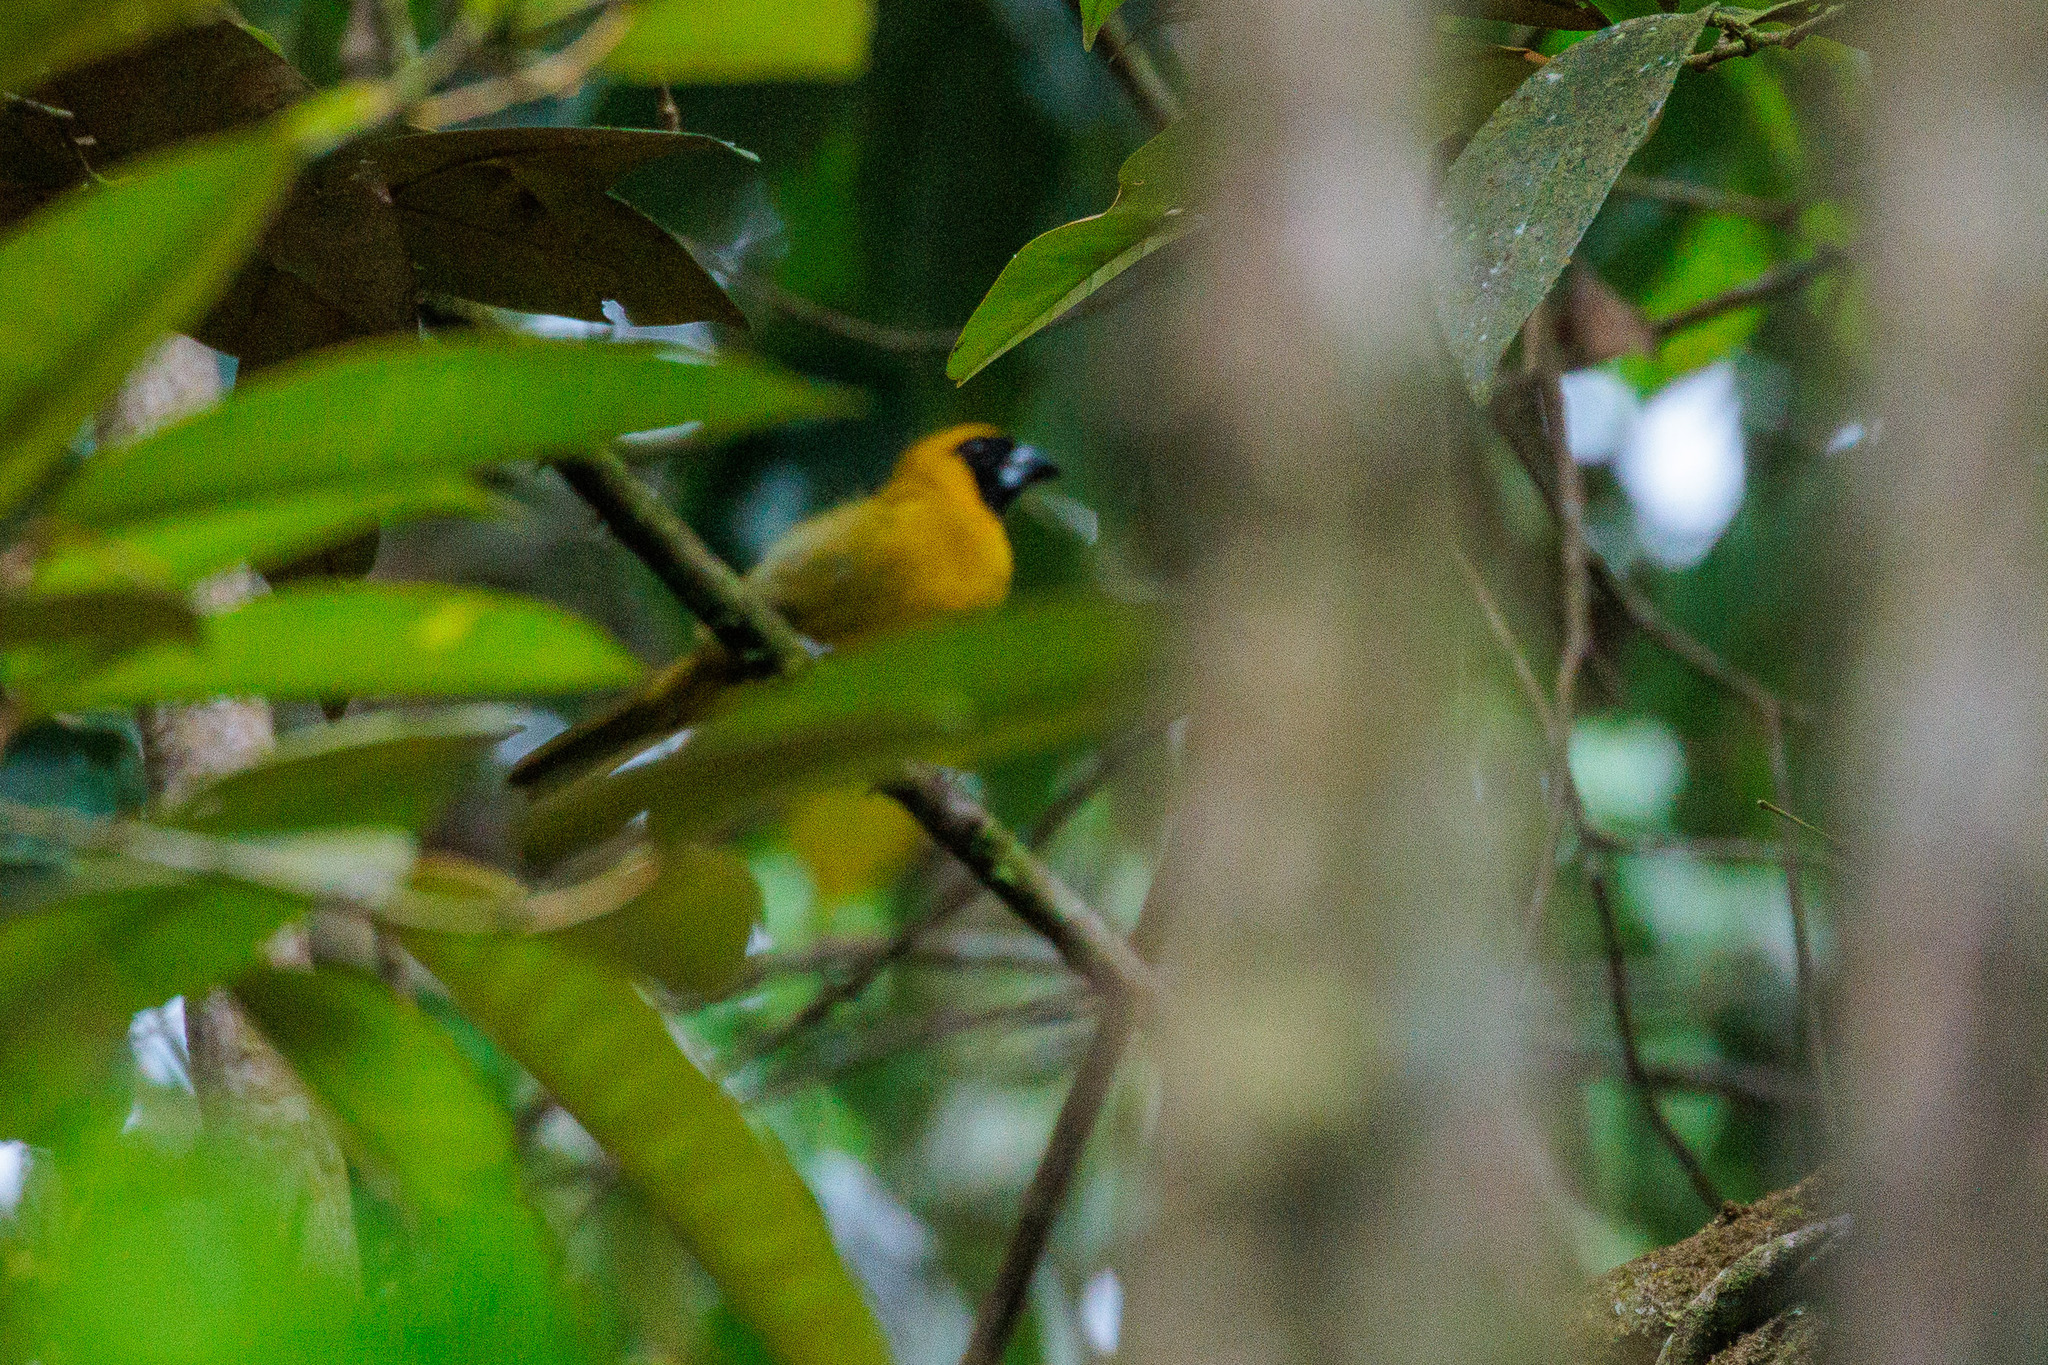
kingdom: Animalia
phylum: Chordata
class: Aves
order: Passeriformes
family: Cardinalidae
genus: Caryothraustes
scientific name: Caryothraustes canadensis
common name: Yellow-green grosbeak
